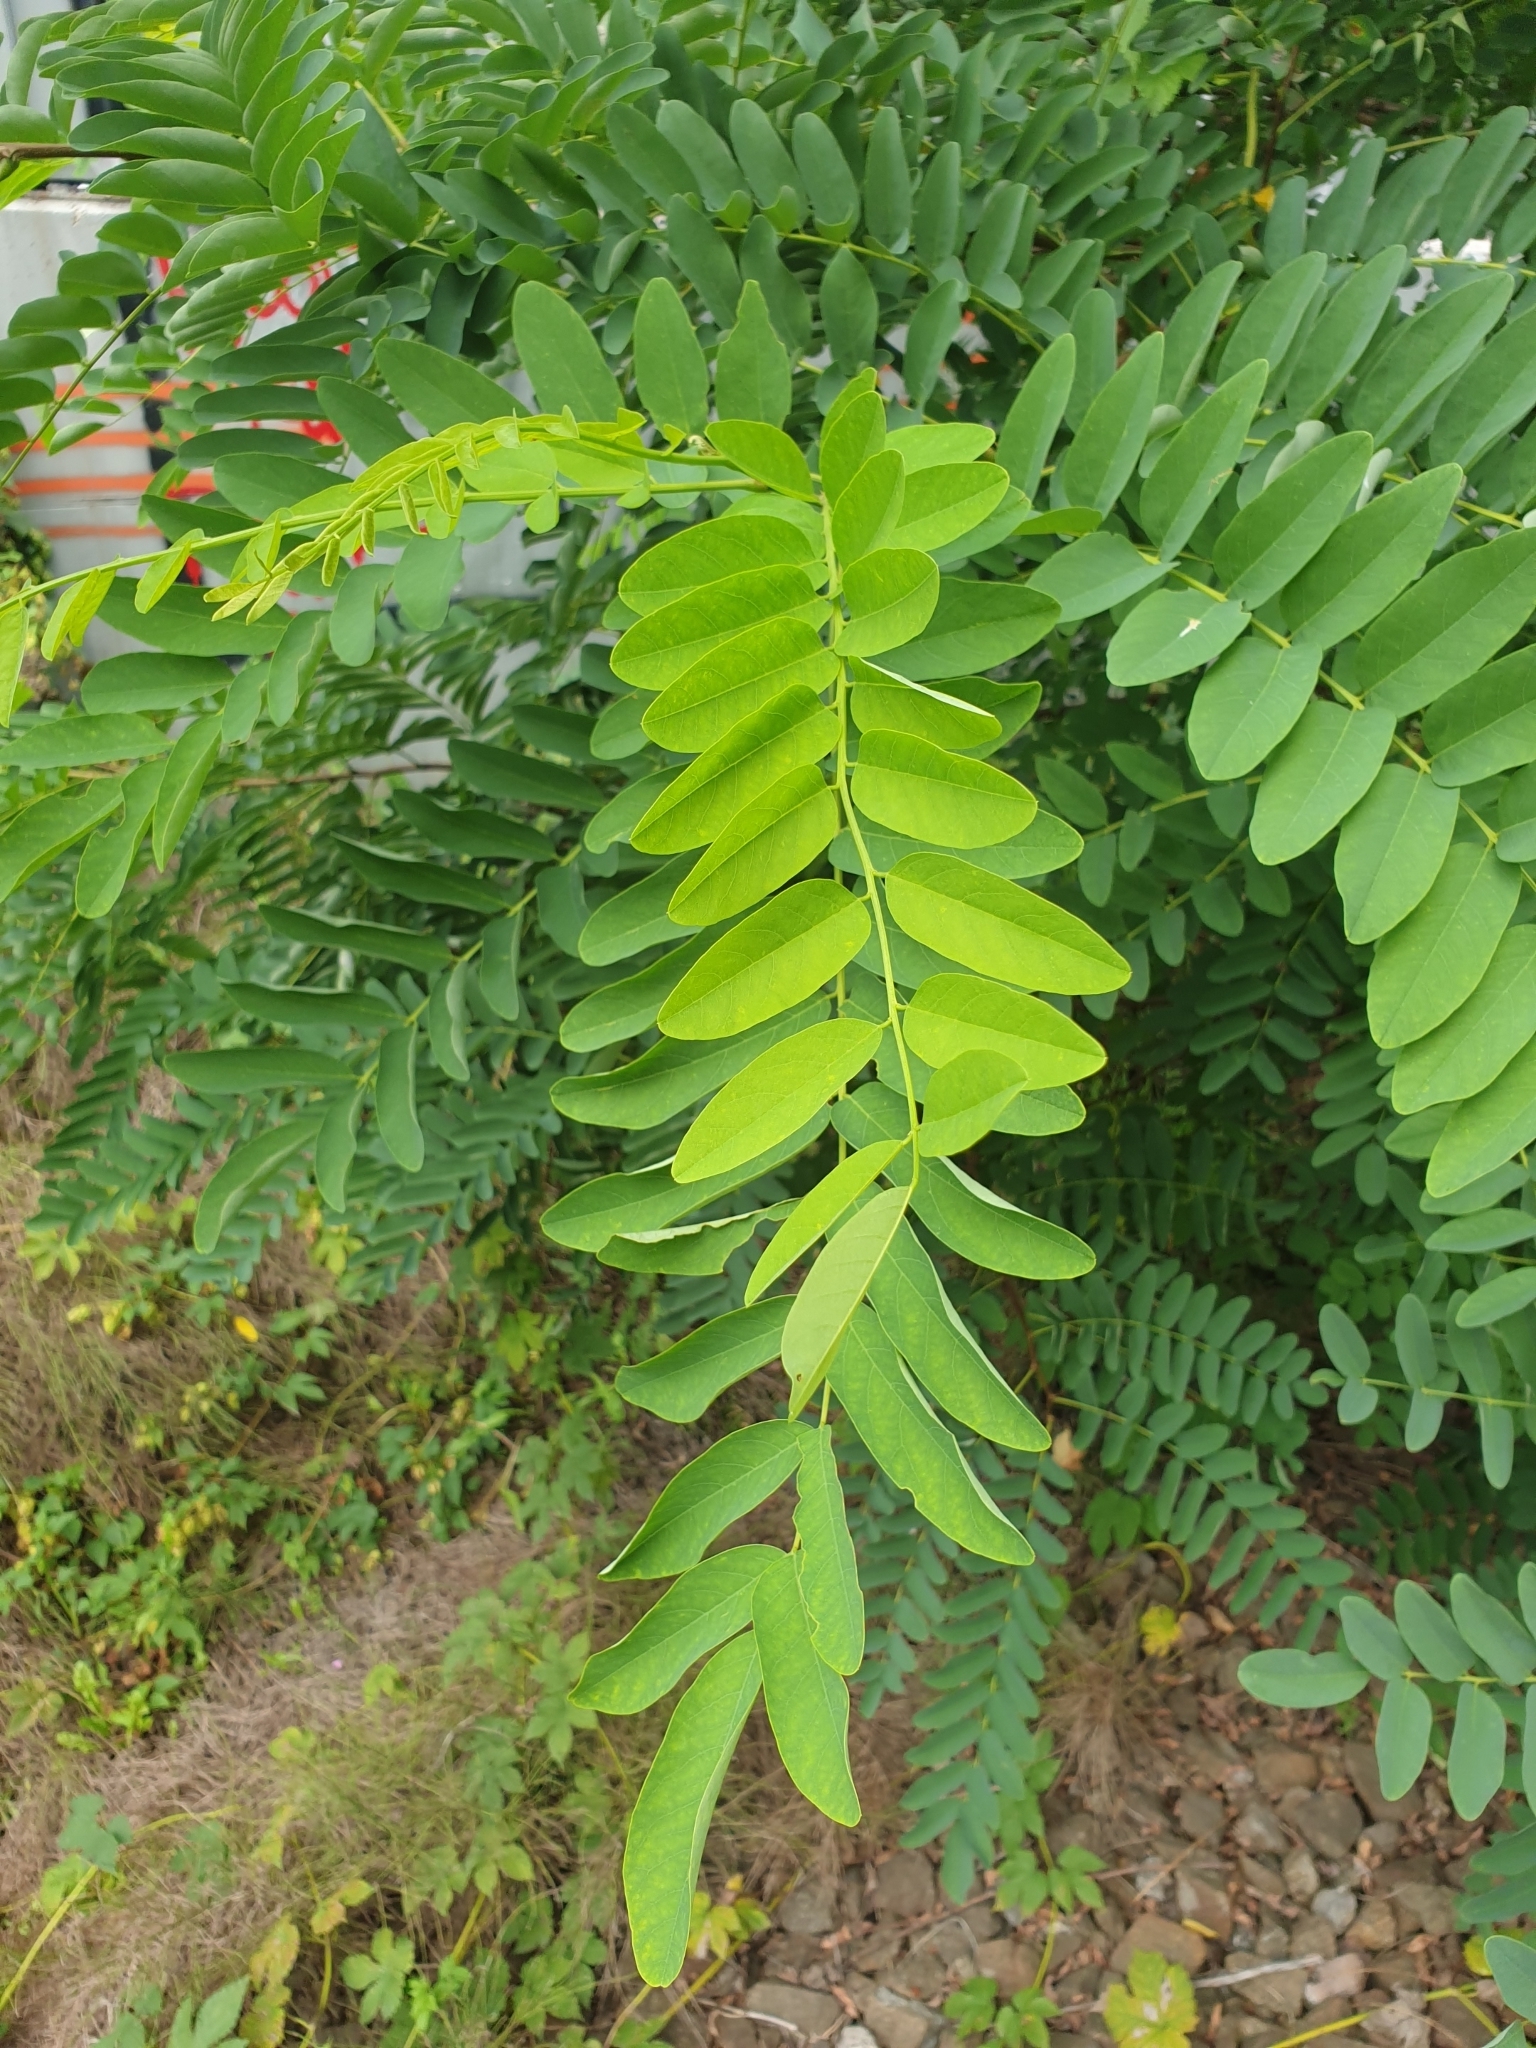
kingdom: Plantae
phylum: Tracheophyta
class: Magnoliopsida
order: Fabales
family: Fabaceae
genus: Robinia
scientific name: Robinia pseudoacacia
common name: Black locust
